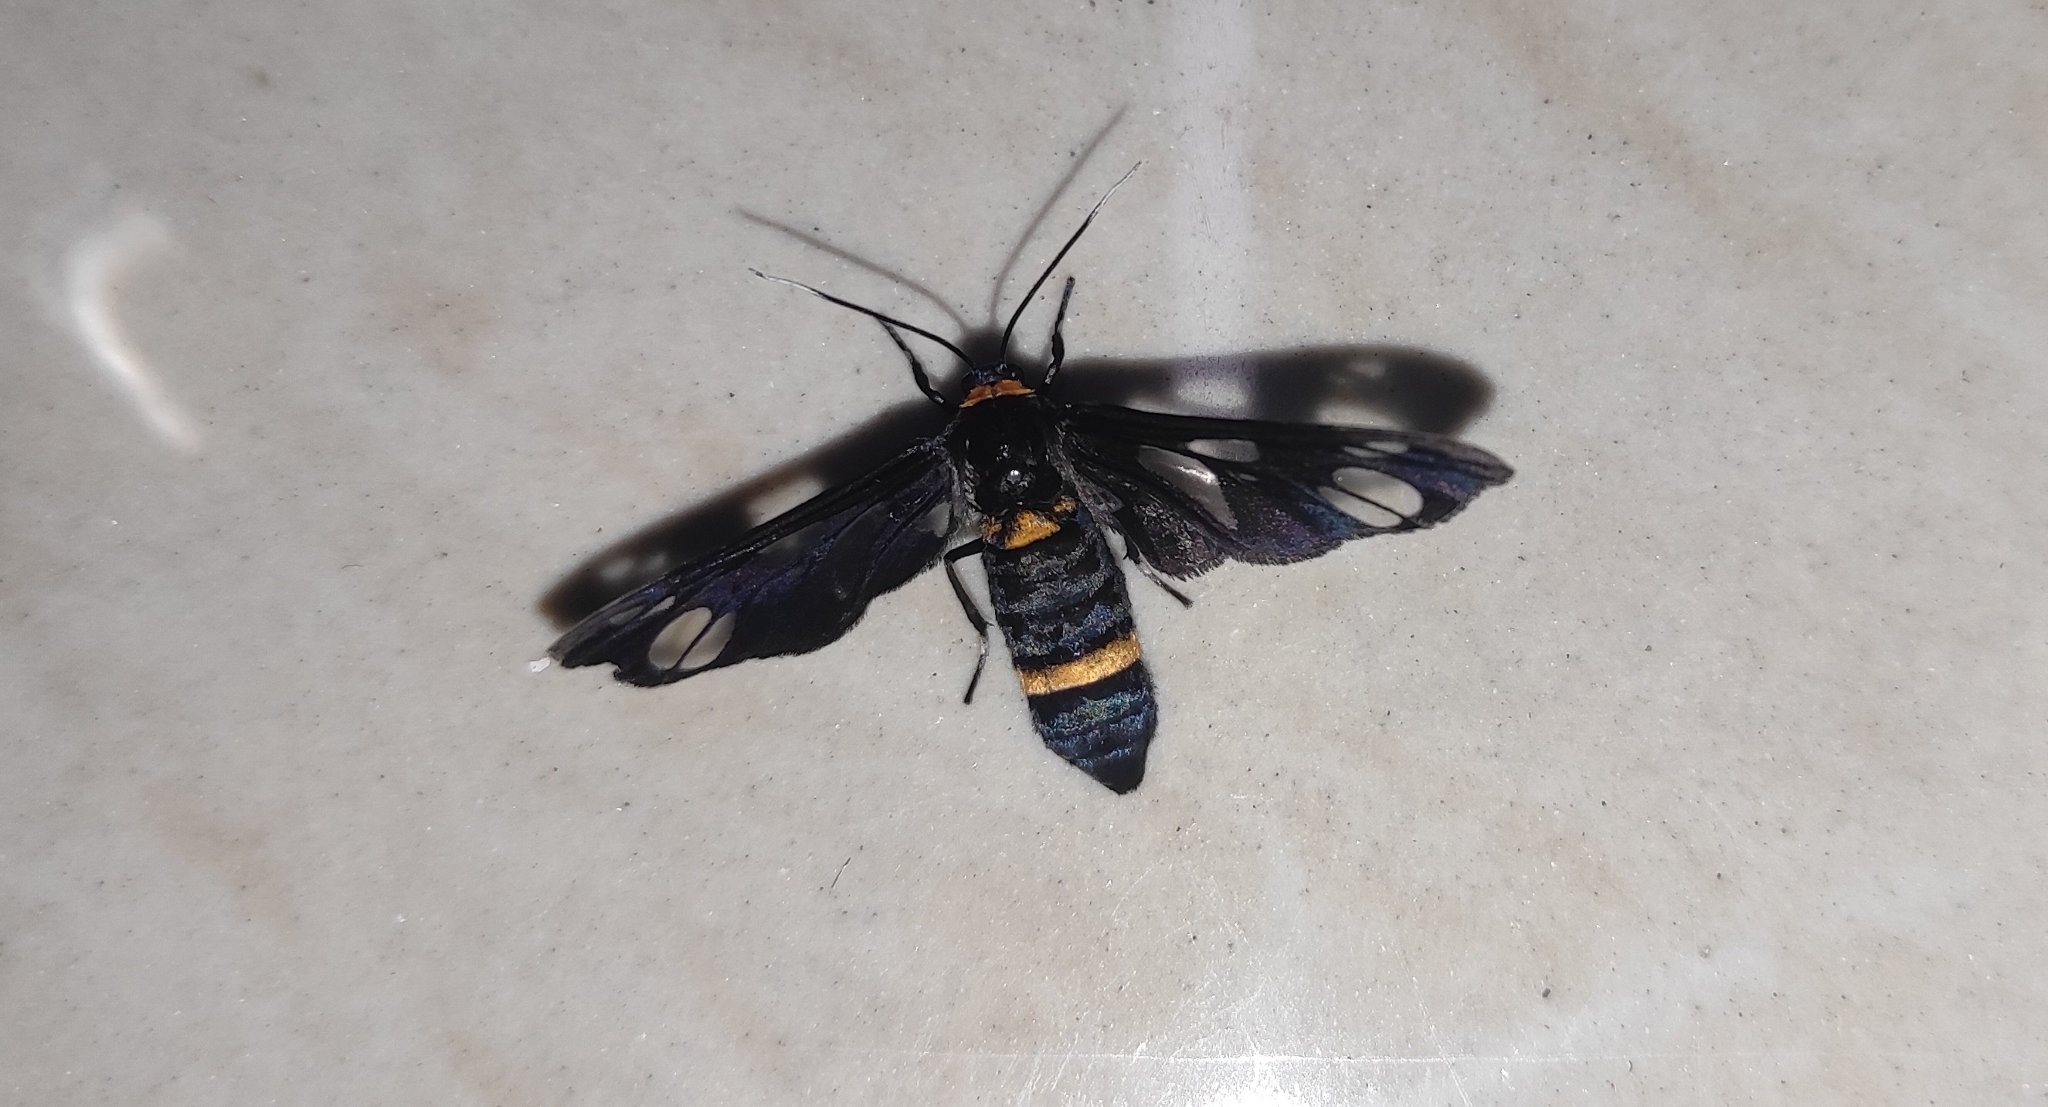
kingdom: Animalia
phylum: Arthropoda
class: Insecta
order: Lepidoptera
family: Erebidae
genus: Syntomoides
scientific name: Syntomoides imaon
